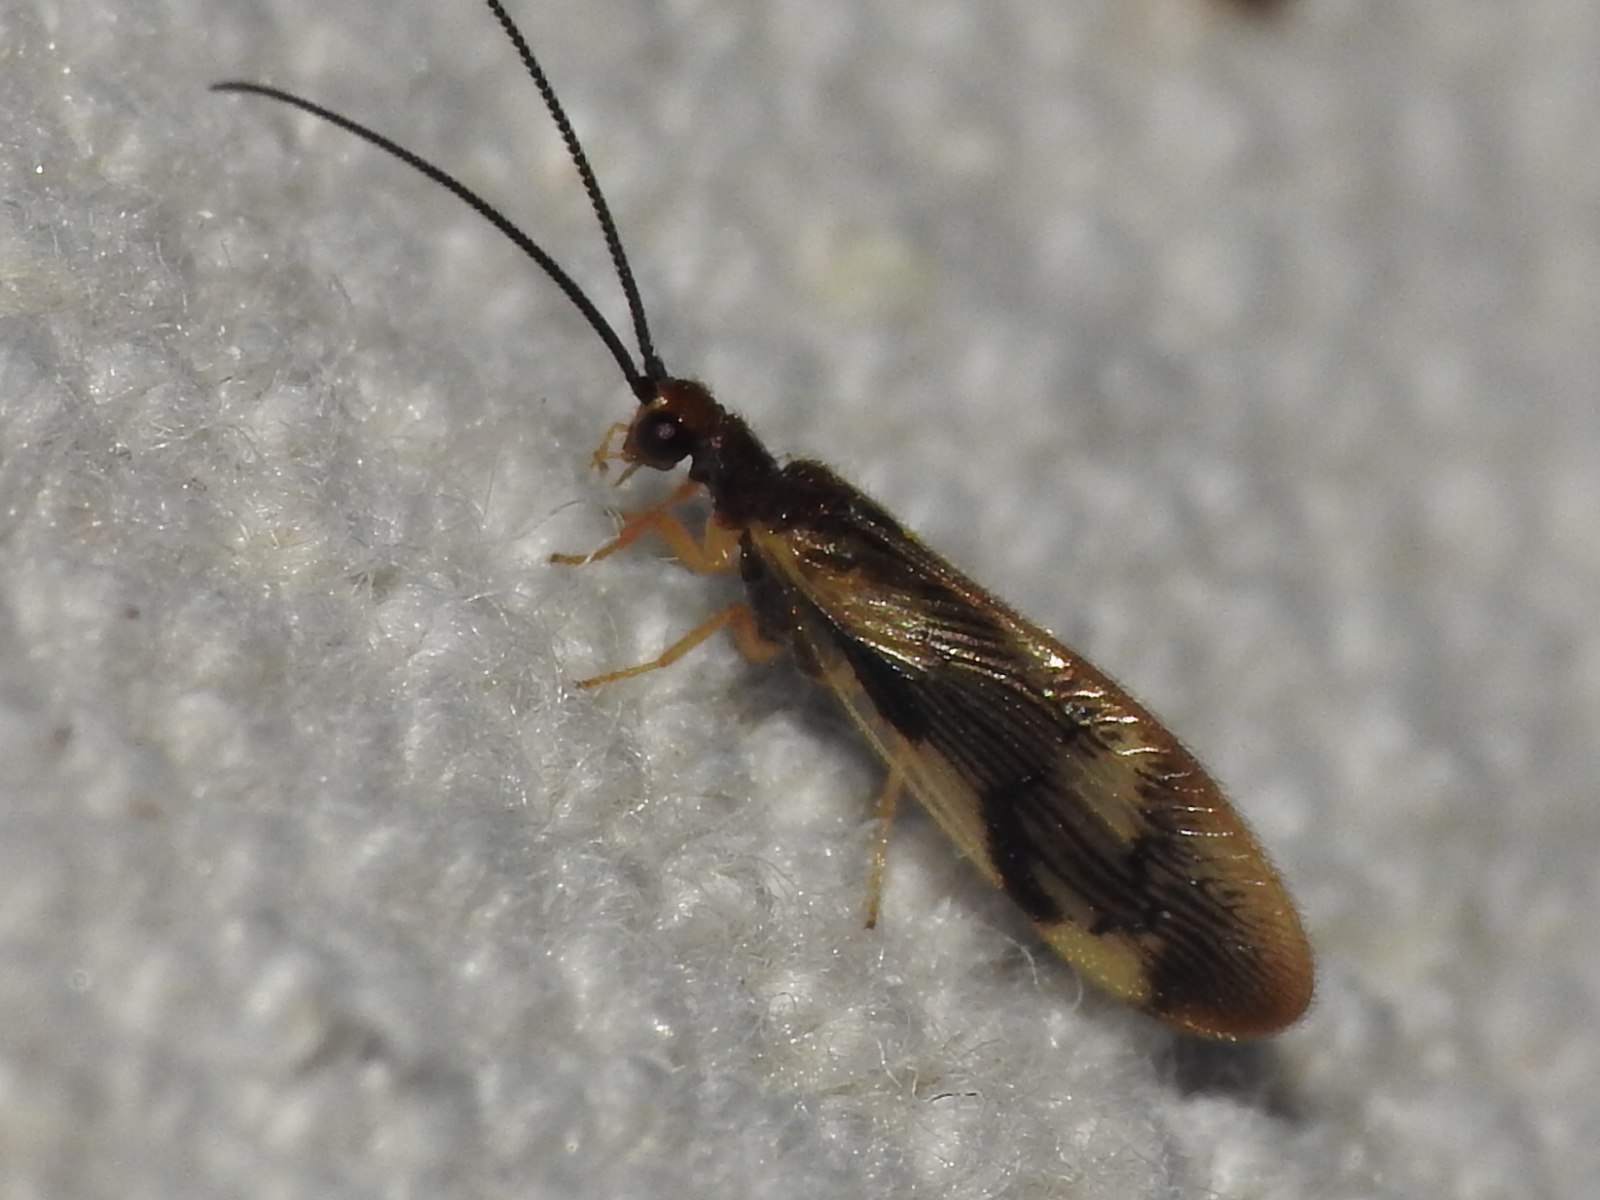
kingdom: Animalia
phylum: Arthropoda
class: Insecta
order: Neuroptera
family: Sisyridae
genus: Climacia
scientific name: Climacia areolaris
